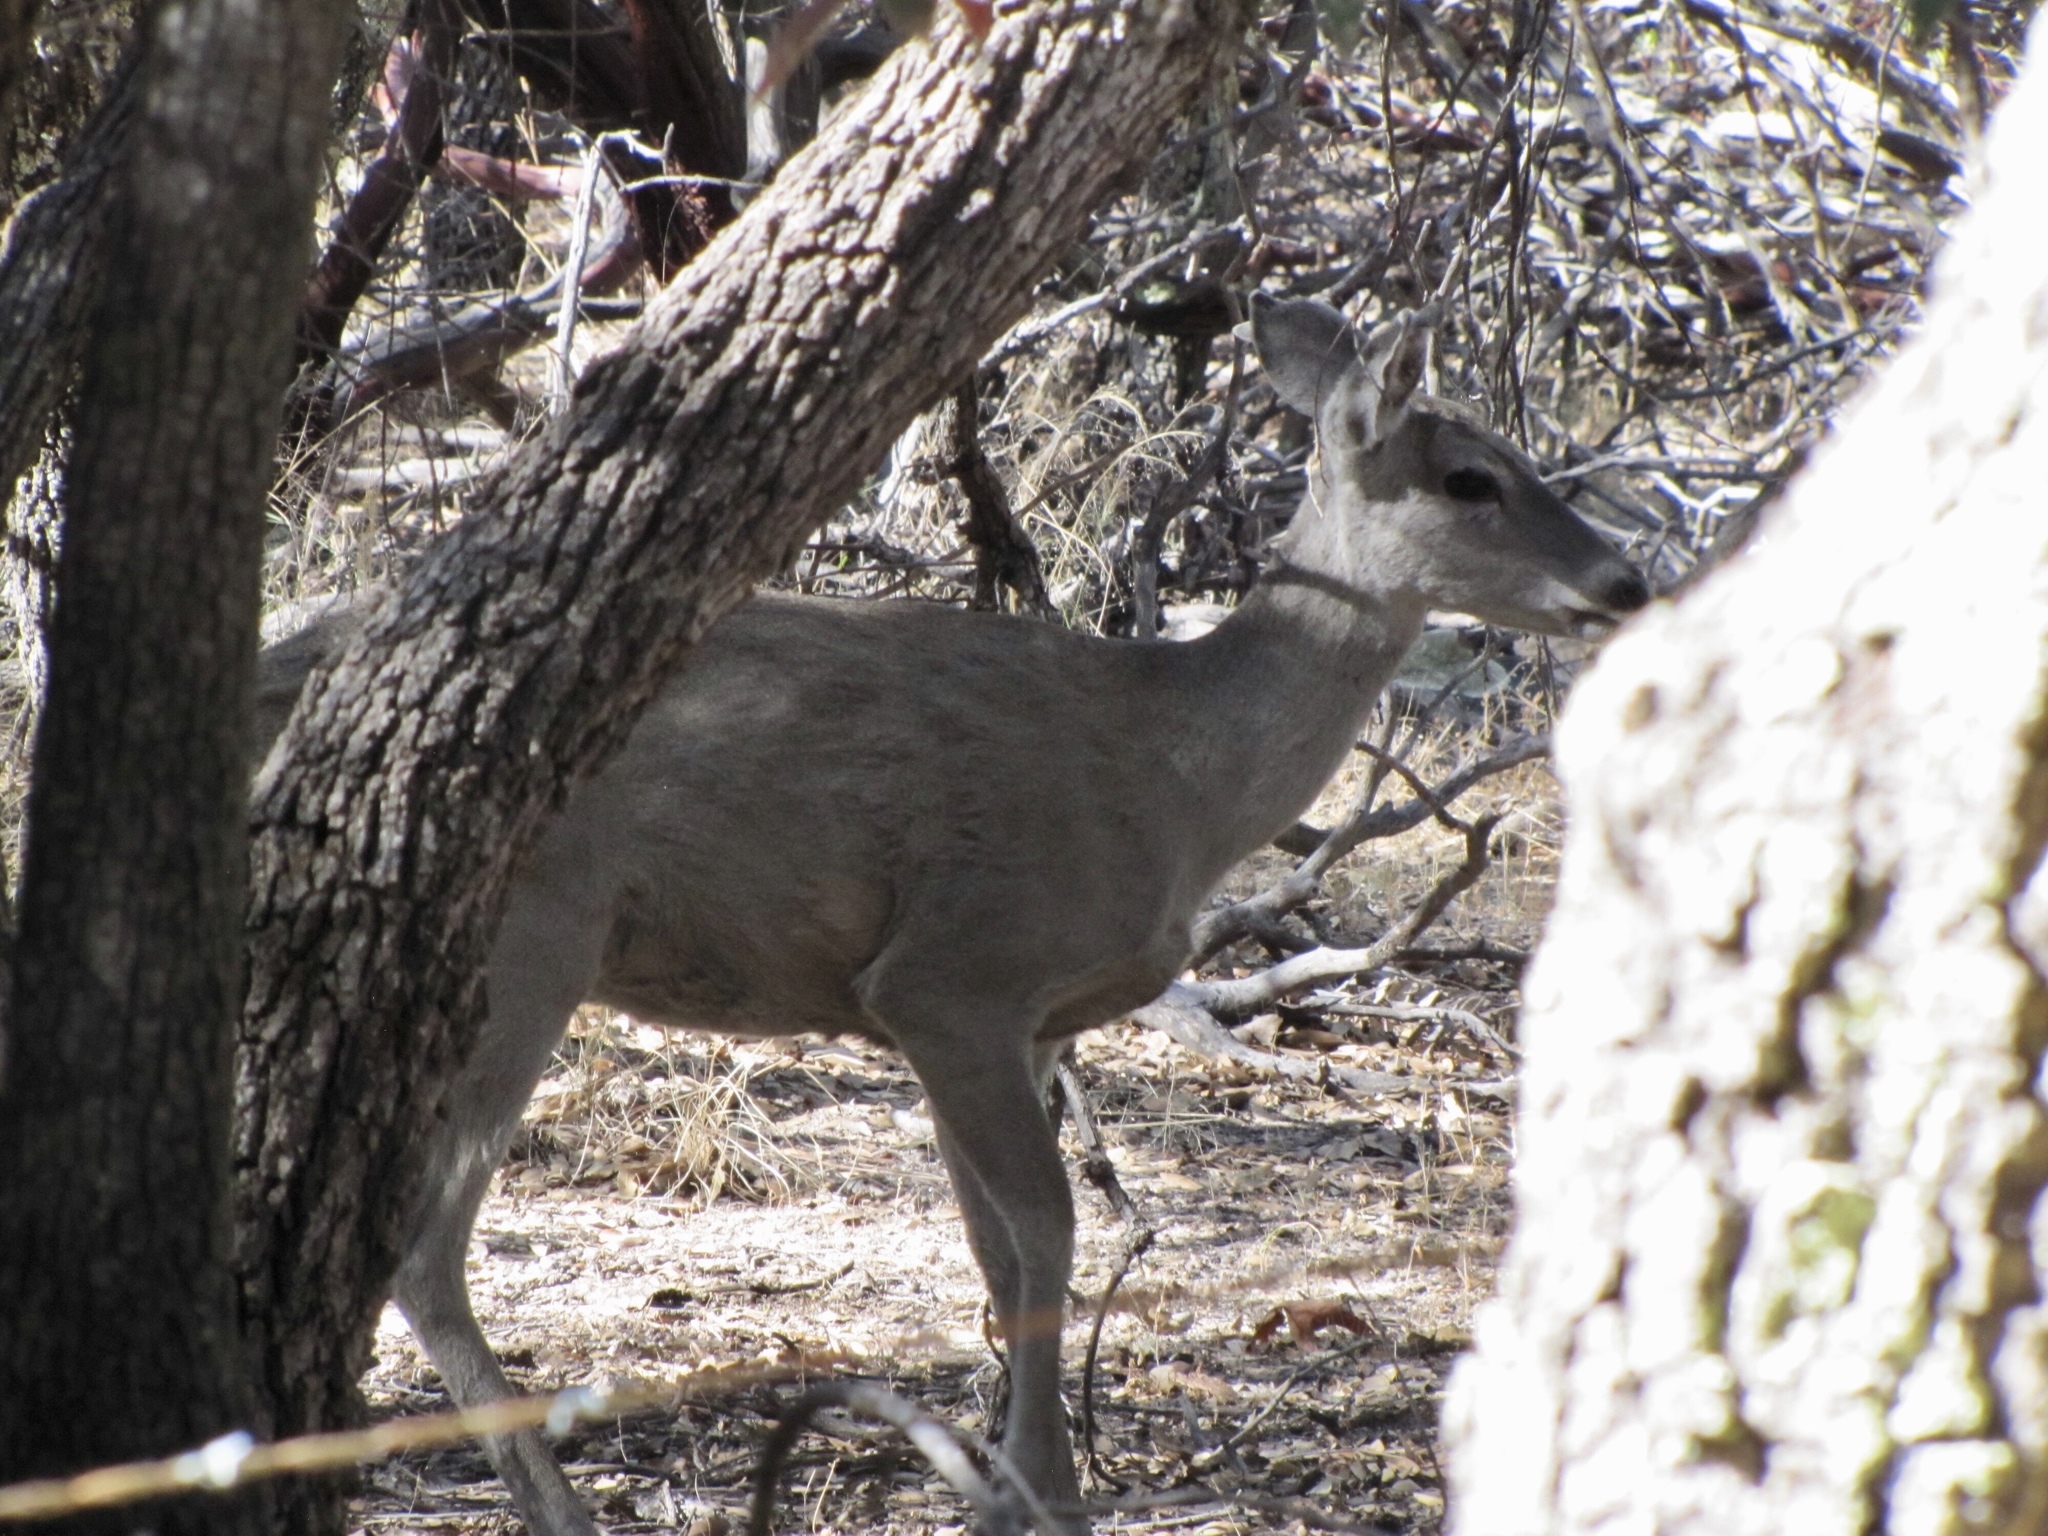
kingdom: Animalia
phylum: Chordata
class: Mammalia
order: Artiodactyla
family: Cervidae
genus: Odocoileus
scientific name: Odocoileus virginianus
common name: White-tailed deer
